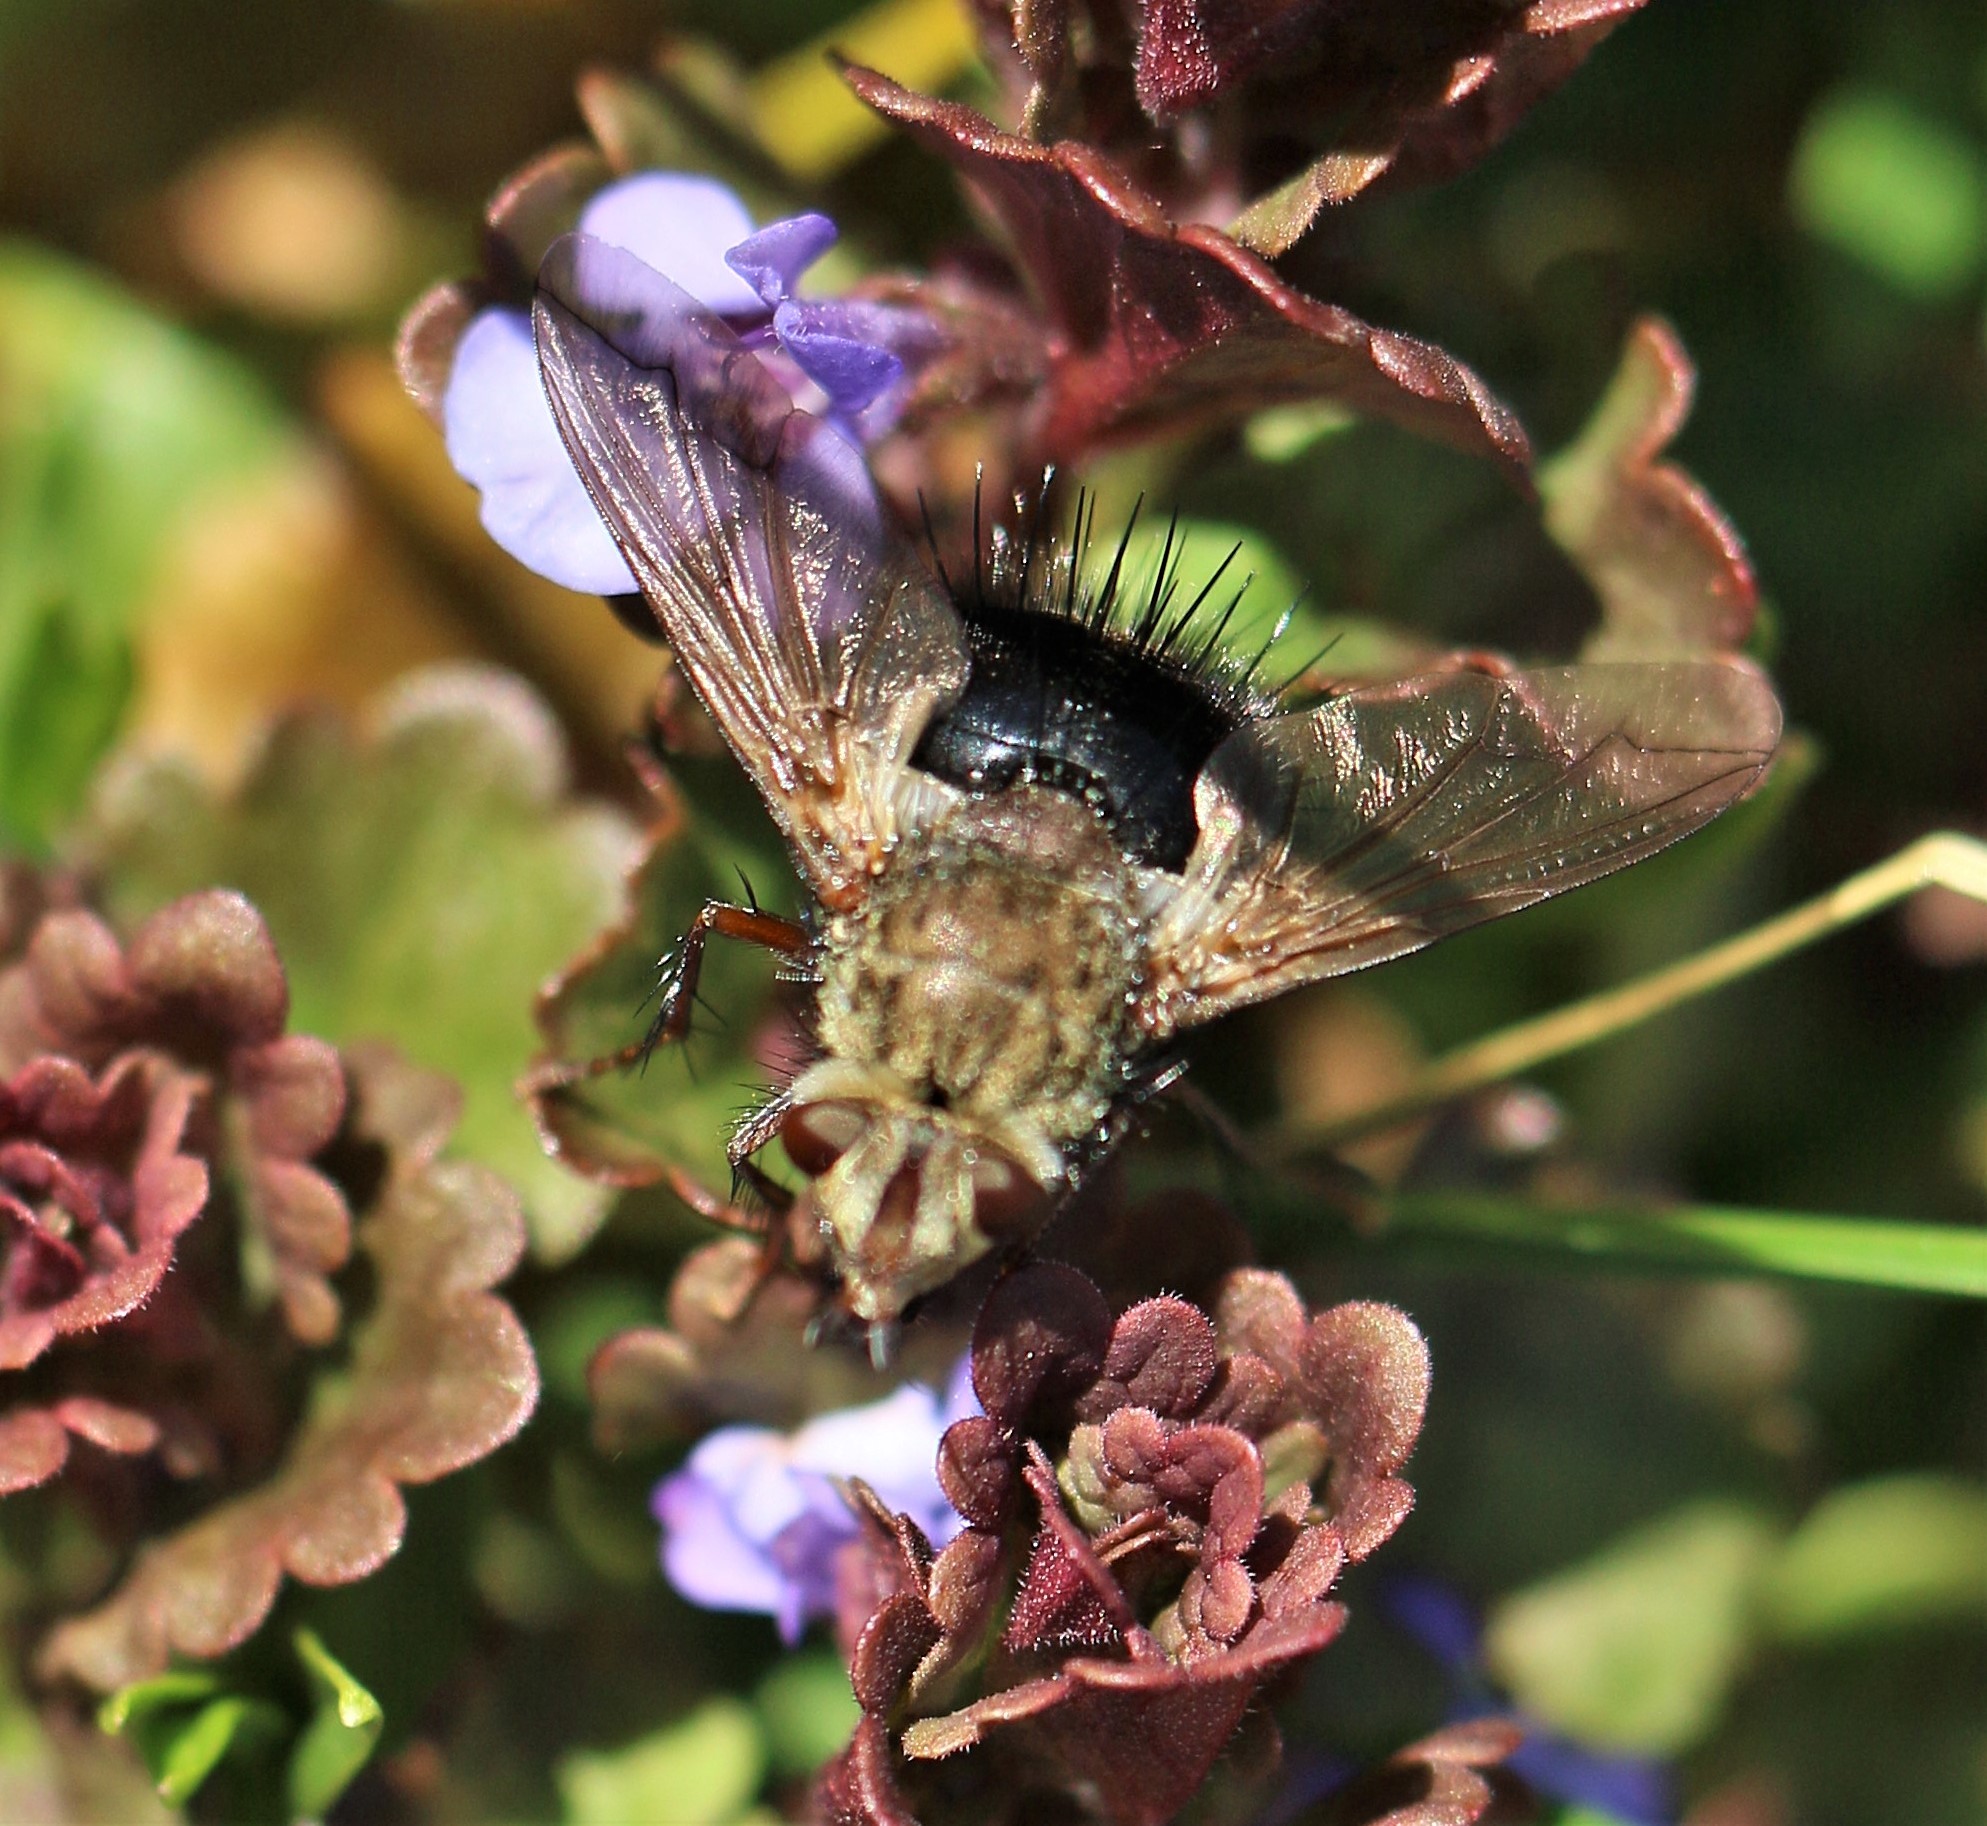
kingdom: Animalia
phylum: Arthropoda
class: Insecta
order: Diptera
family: Tachinidae
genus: Epalpus
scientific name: Epalpus signifer
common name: Early tachinid fly
